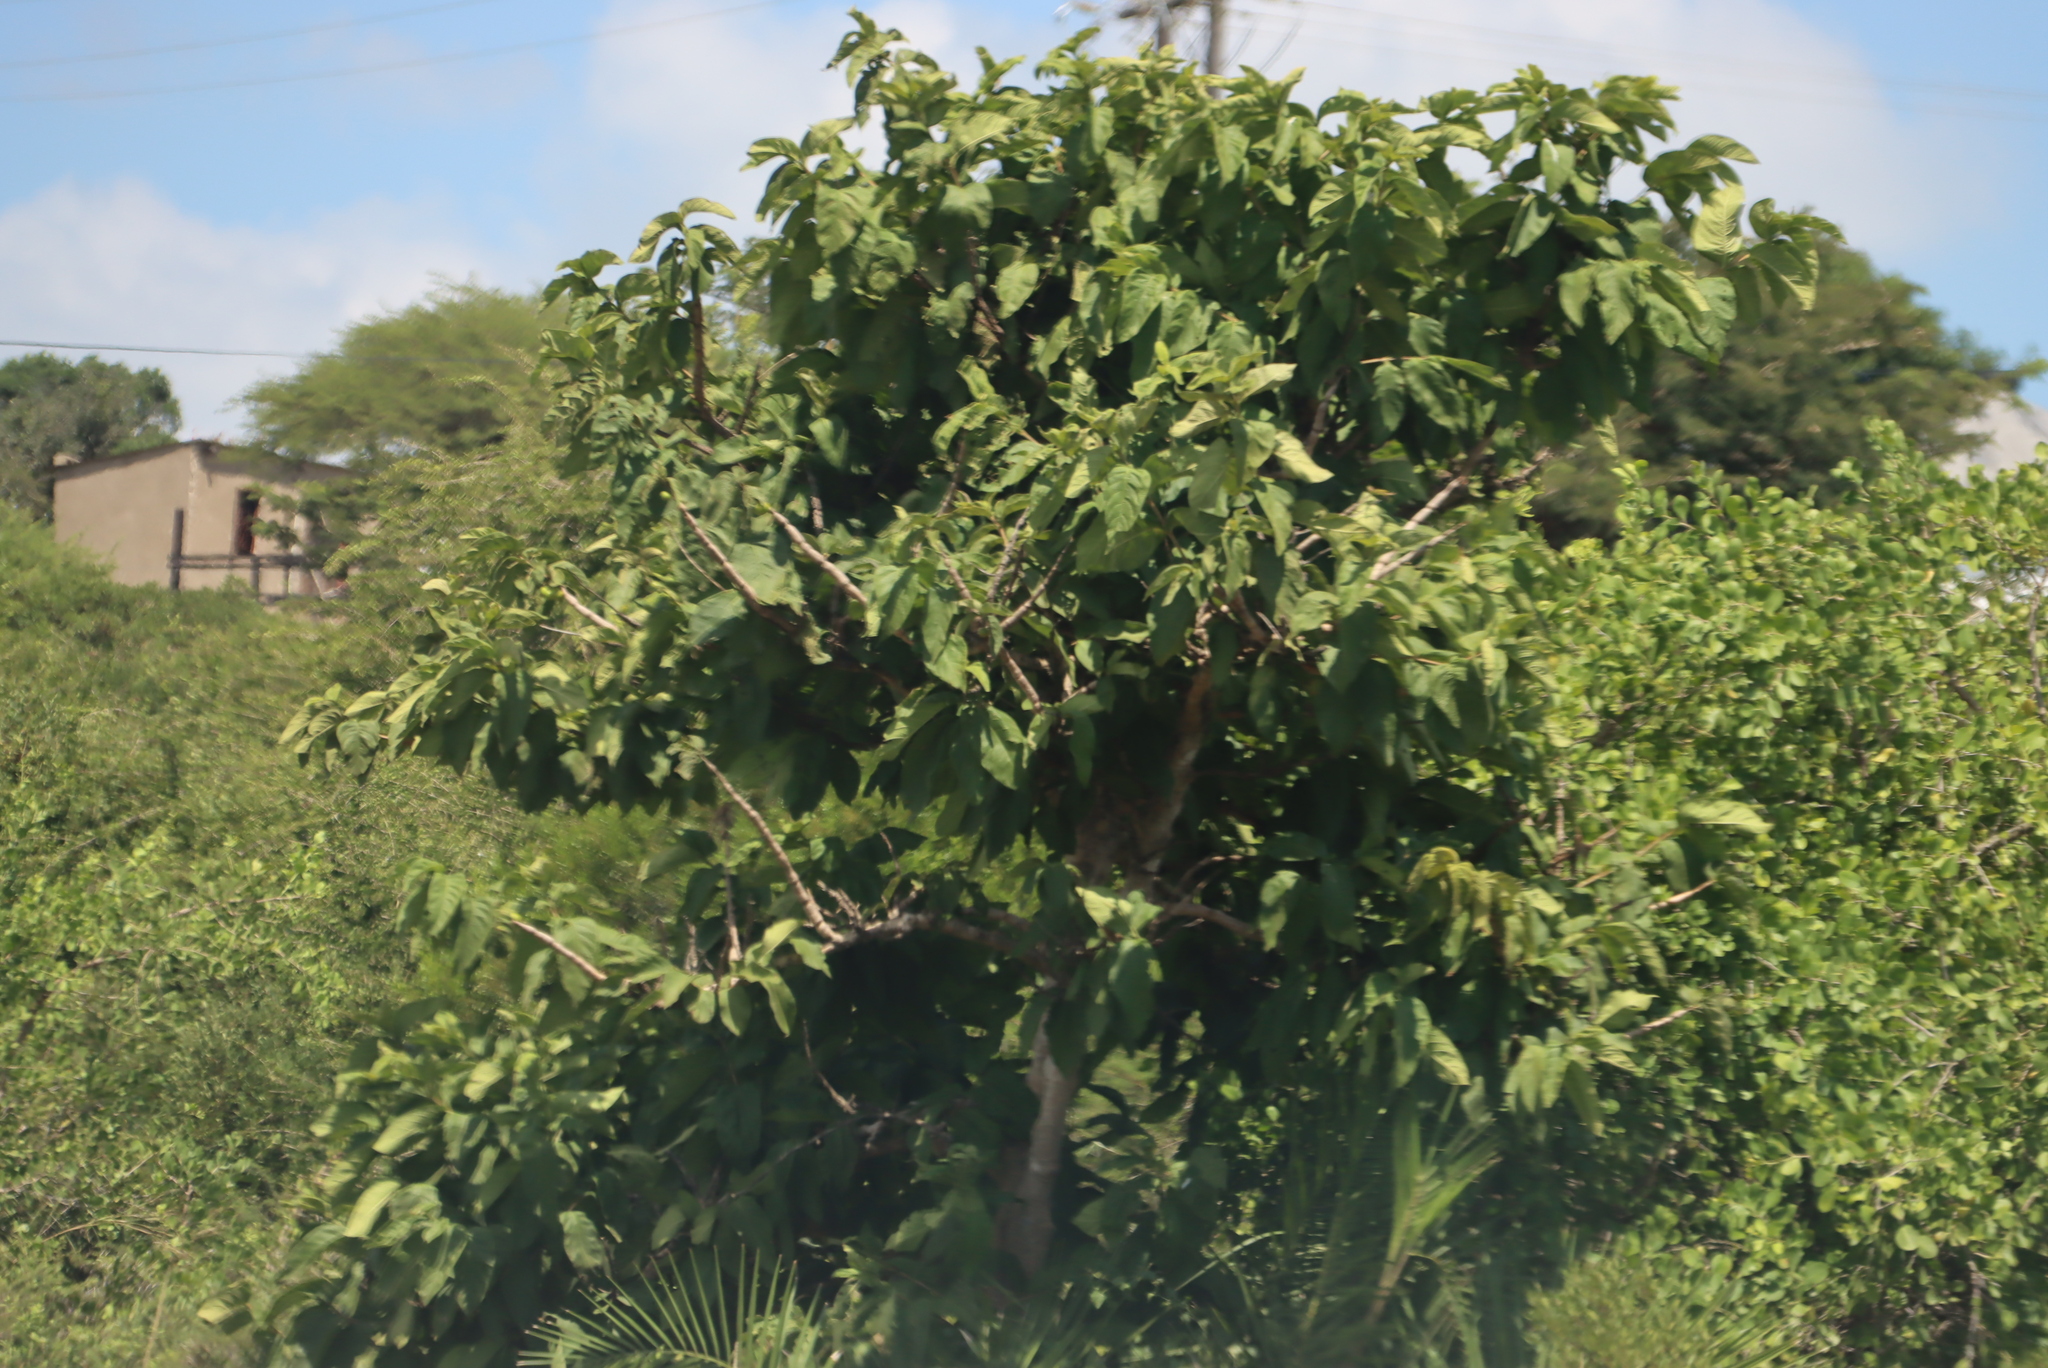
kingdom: Plantae
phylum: Tracheophyta
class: Magnoliopsida
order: Gentianales
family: Rubiaceae
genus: Vangueria
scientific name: Vangueria infausta
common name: Medlar
